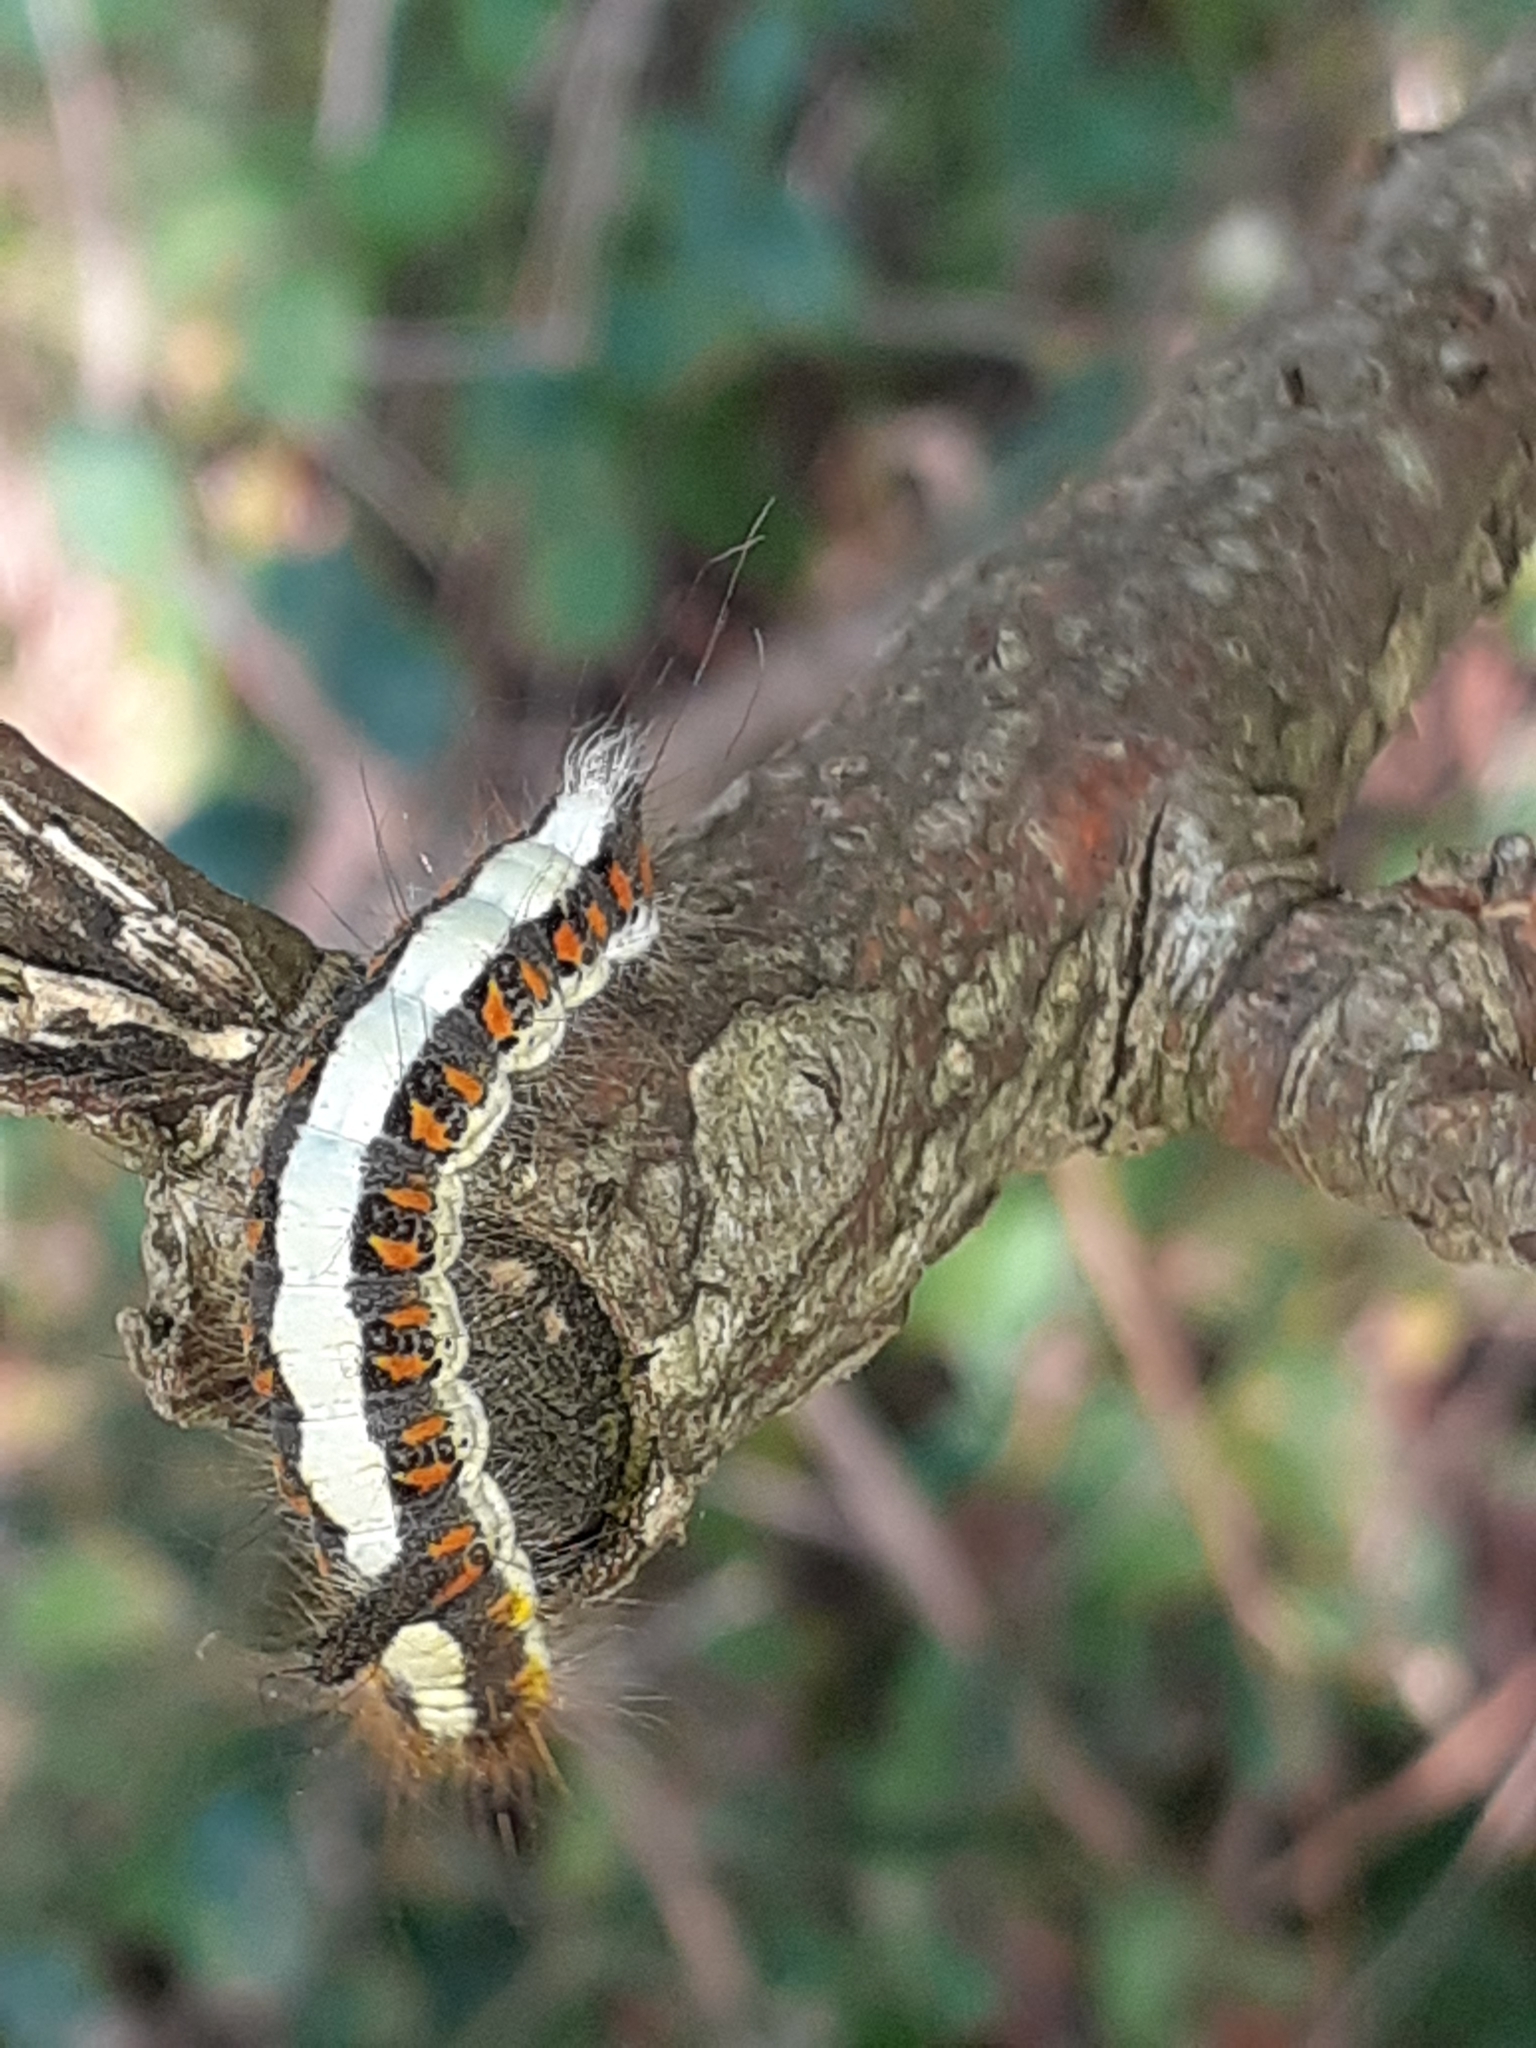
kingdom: Animalia
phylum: Arthropoda
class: Insecta
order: Lepidoptera
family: Noctuidae
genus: Acronicta
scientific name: Acronicta psi
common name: Grey dagger
